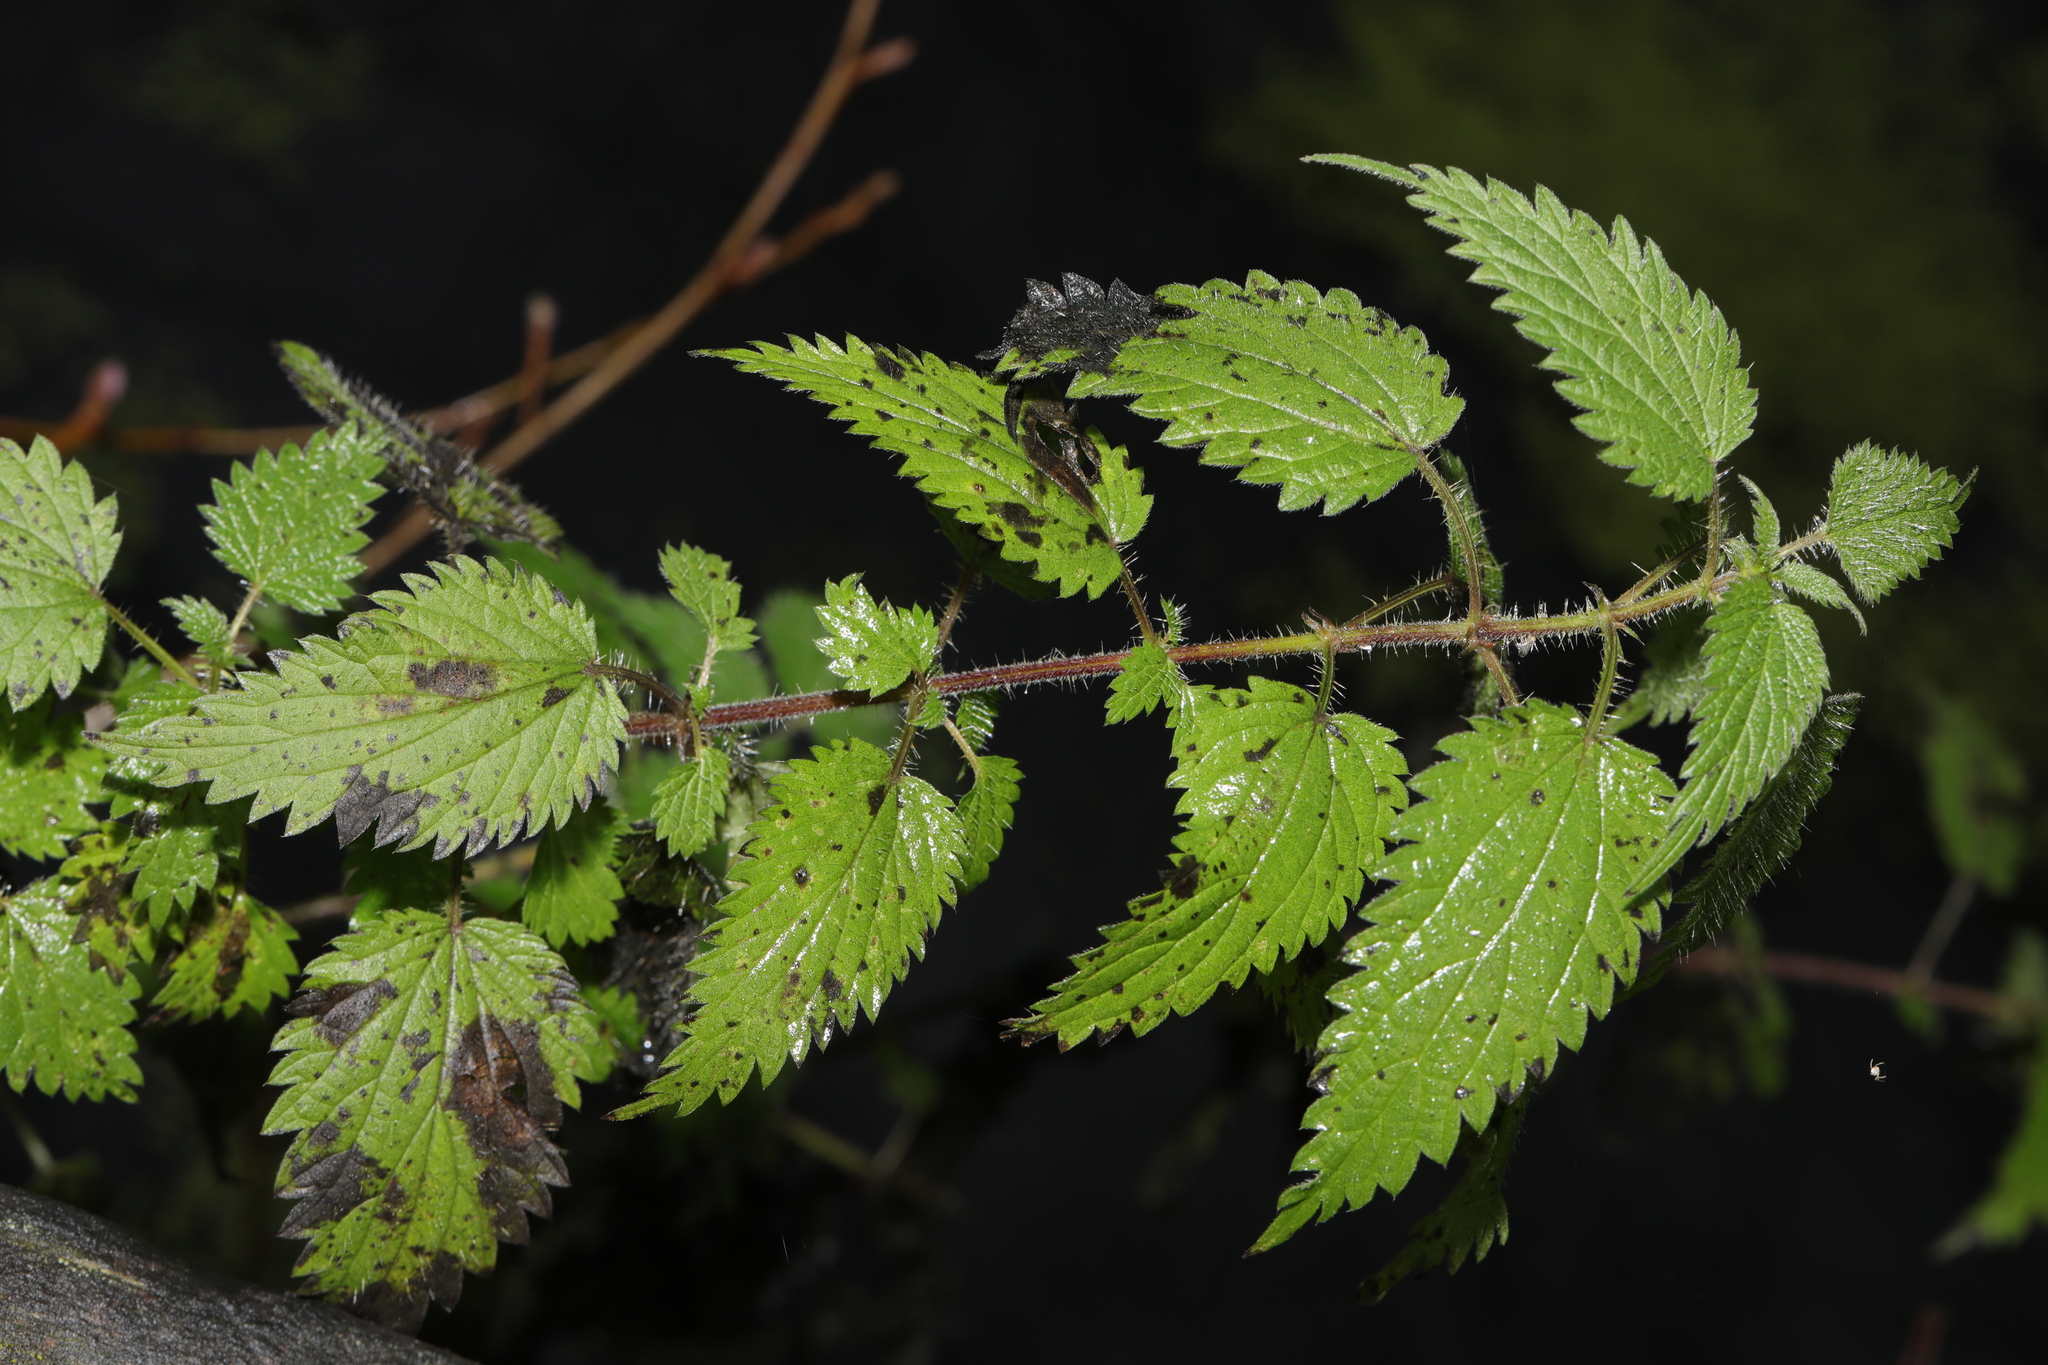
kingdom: Plantae
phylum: Tracheophyta
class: Magnoliopsida
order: Rosales
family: Urticaceae
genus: Urtica
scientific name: Urtica dioica
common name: Common nettle
